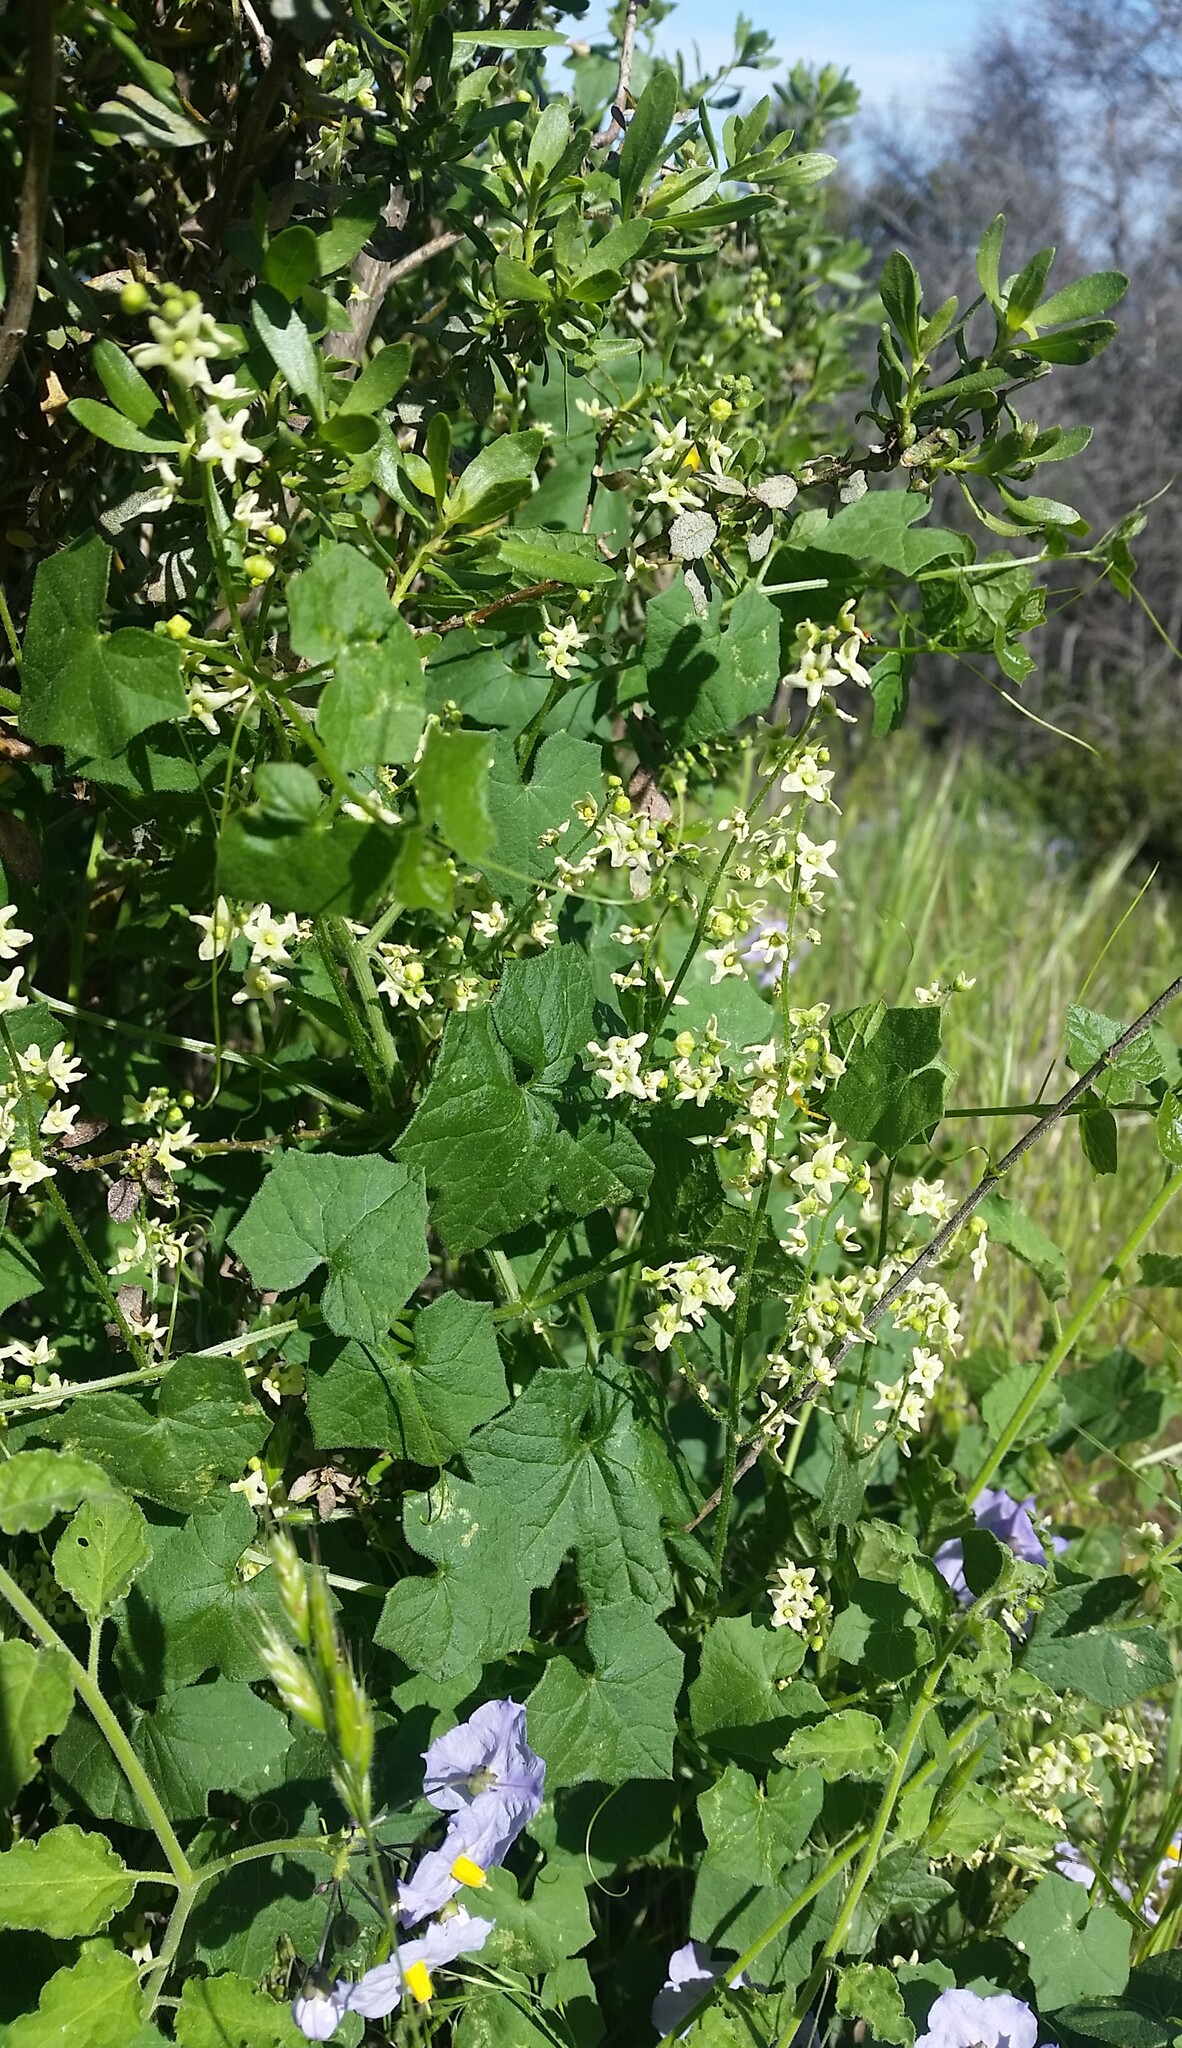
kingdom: Plantae
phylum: Tracheophyta
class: Magnoliopsida
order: Cucurbitales
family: Cucurbitaceae
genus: Marah
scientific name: Marah fabacea
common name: California manroot
